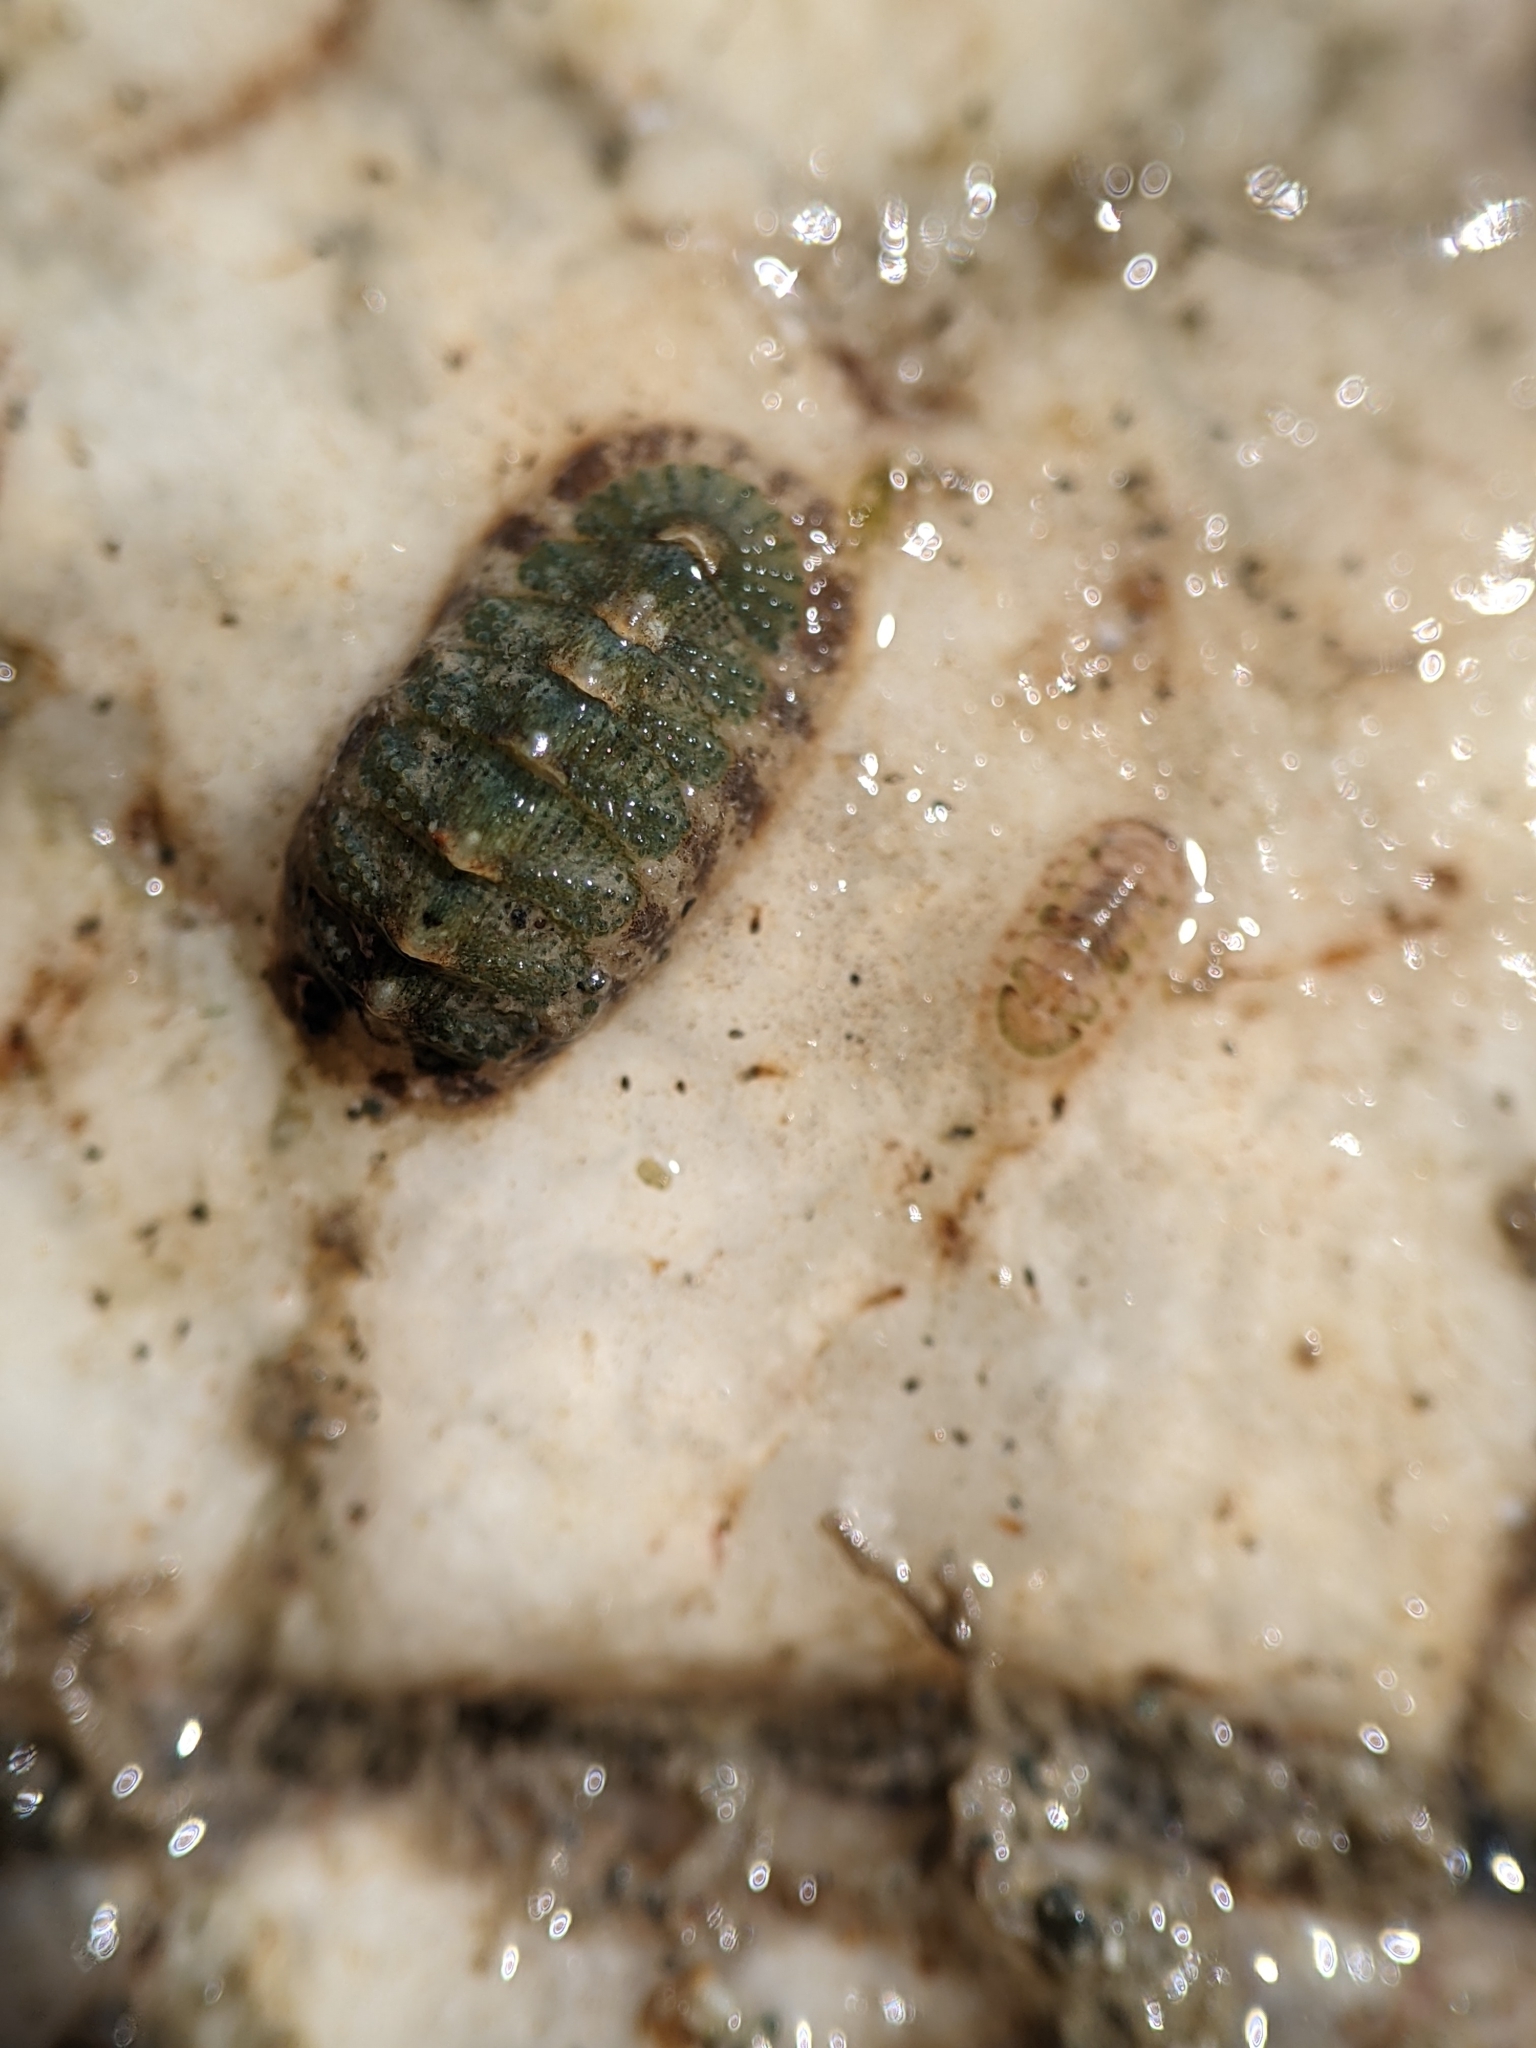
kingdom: Animalia
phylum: Mollusca
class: Polyplacophora
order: Chitonida
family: Chaetopleuridae
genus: Chaetopleura
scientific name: Chaetopleura gemma
